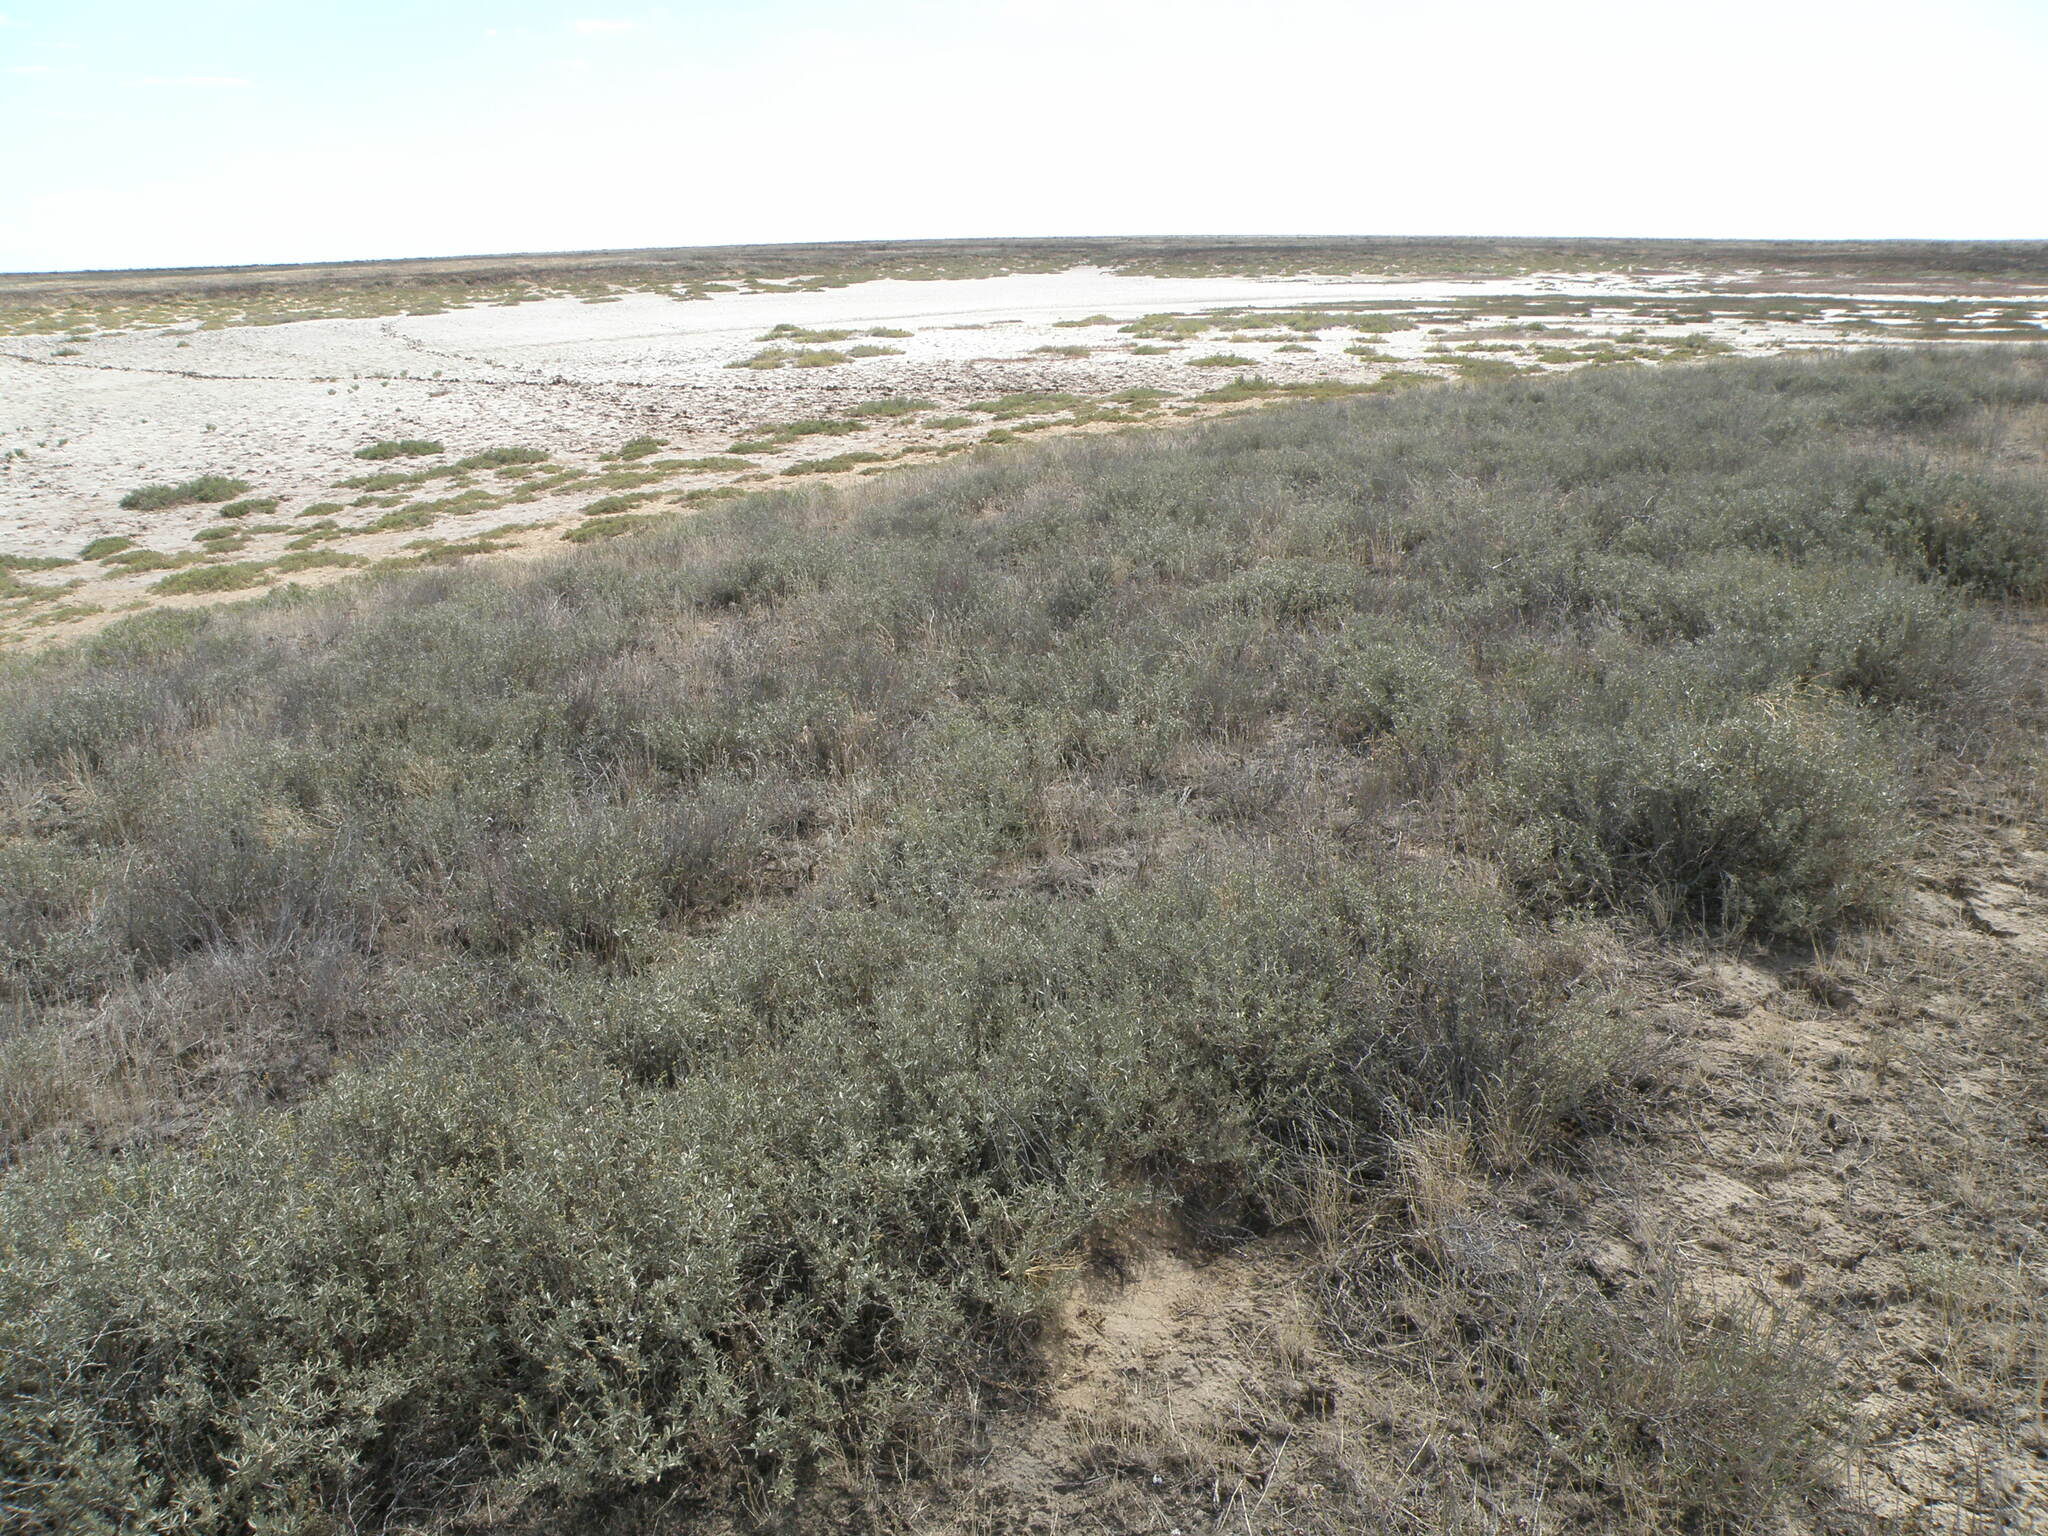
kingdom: Plantae
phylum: Tracheophyta
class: Magnoliopsida
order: Caryophyllales
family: Amaranthaceae
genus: Atriplex
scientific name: Atriplex cana
